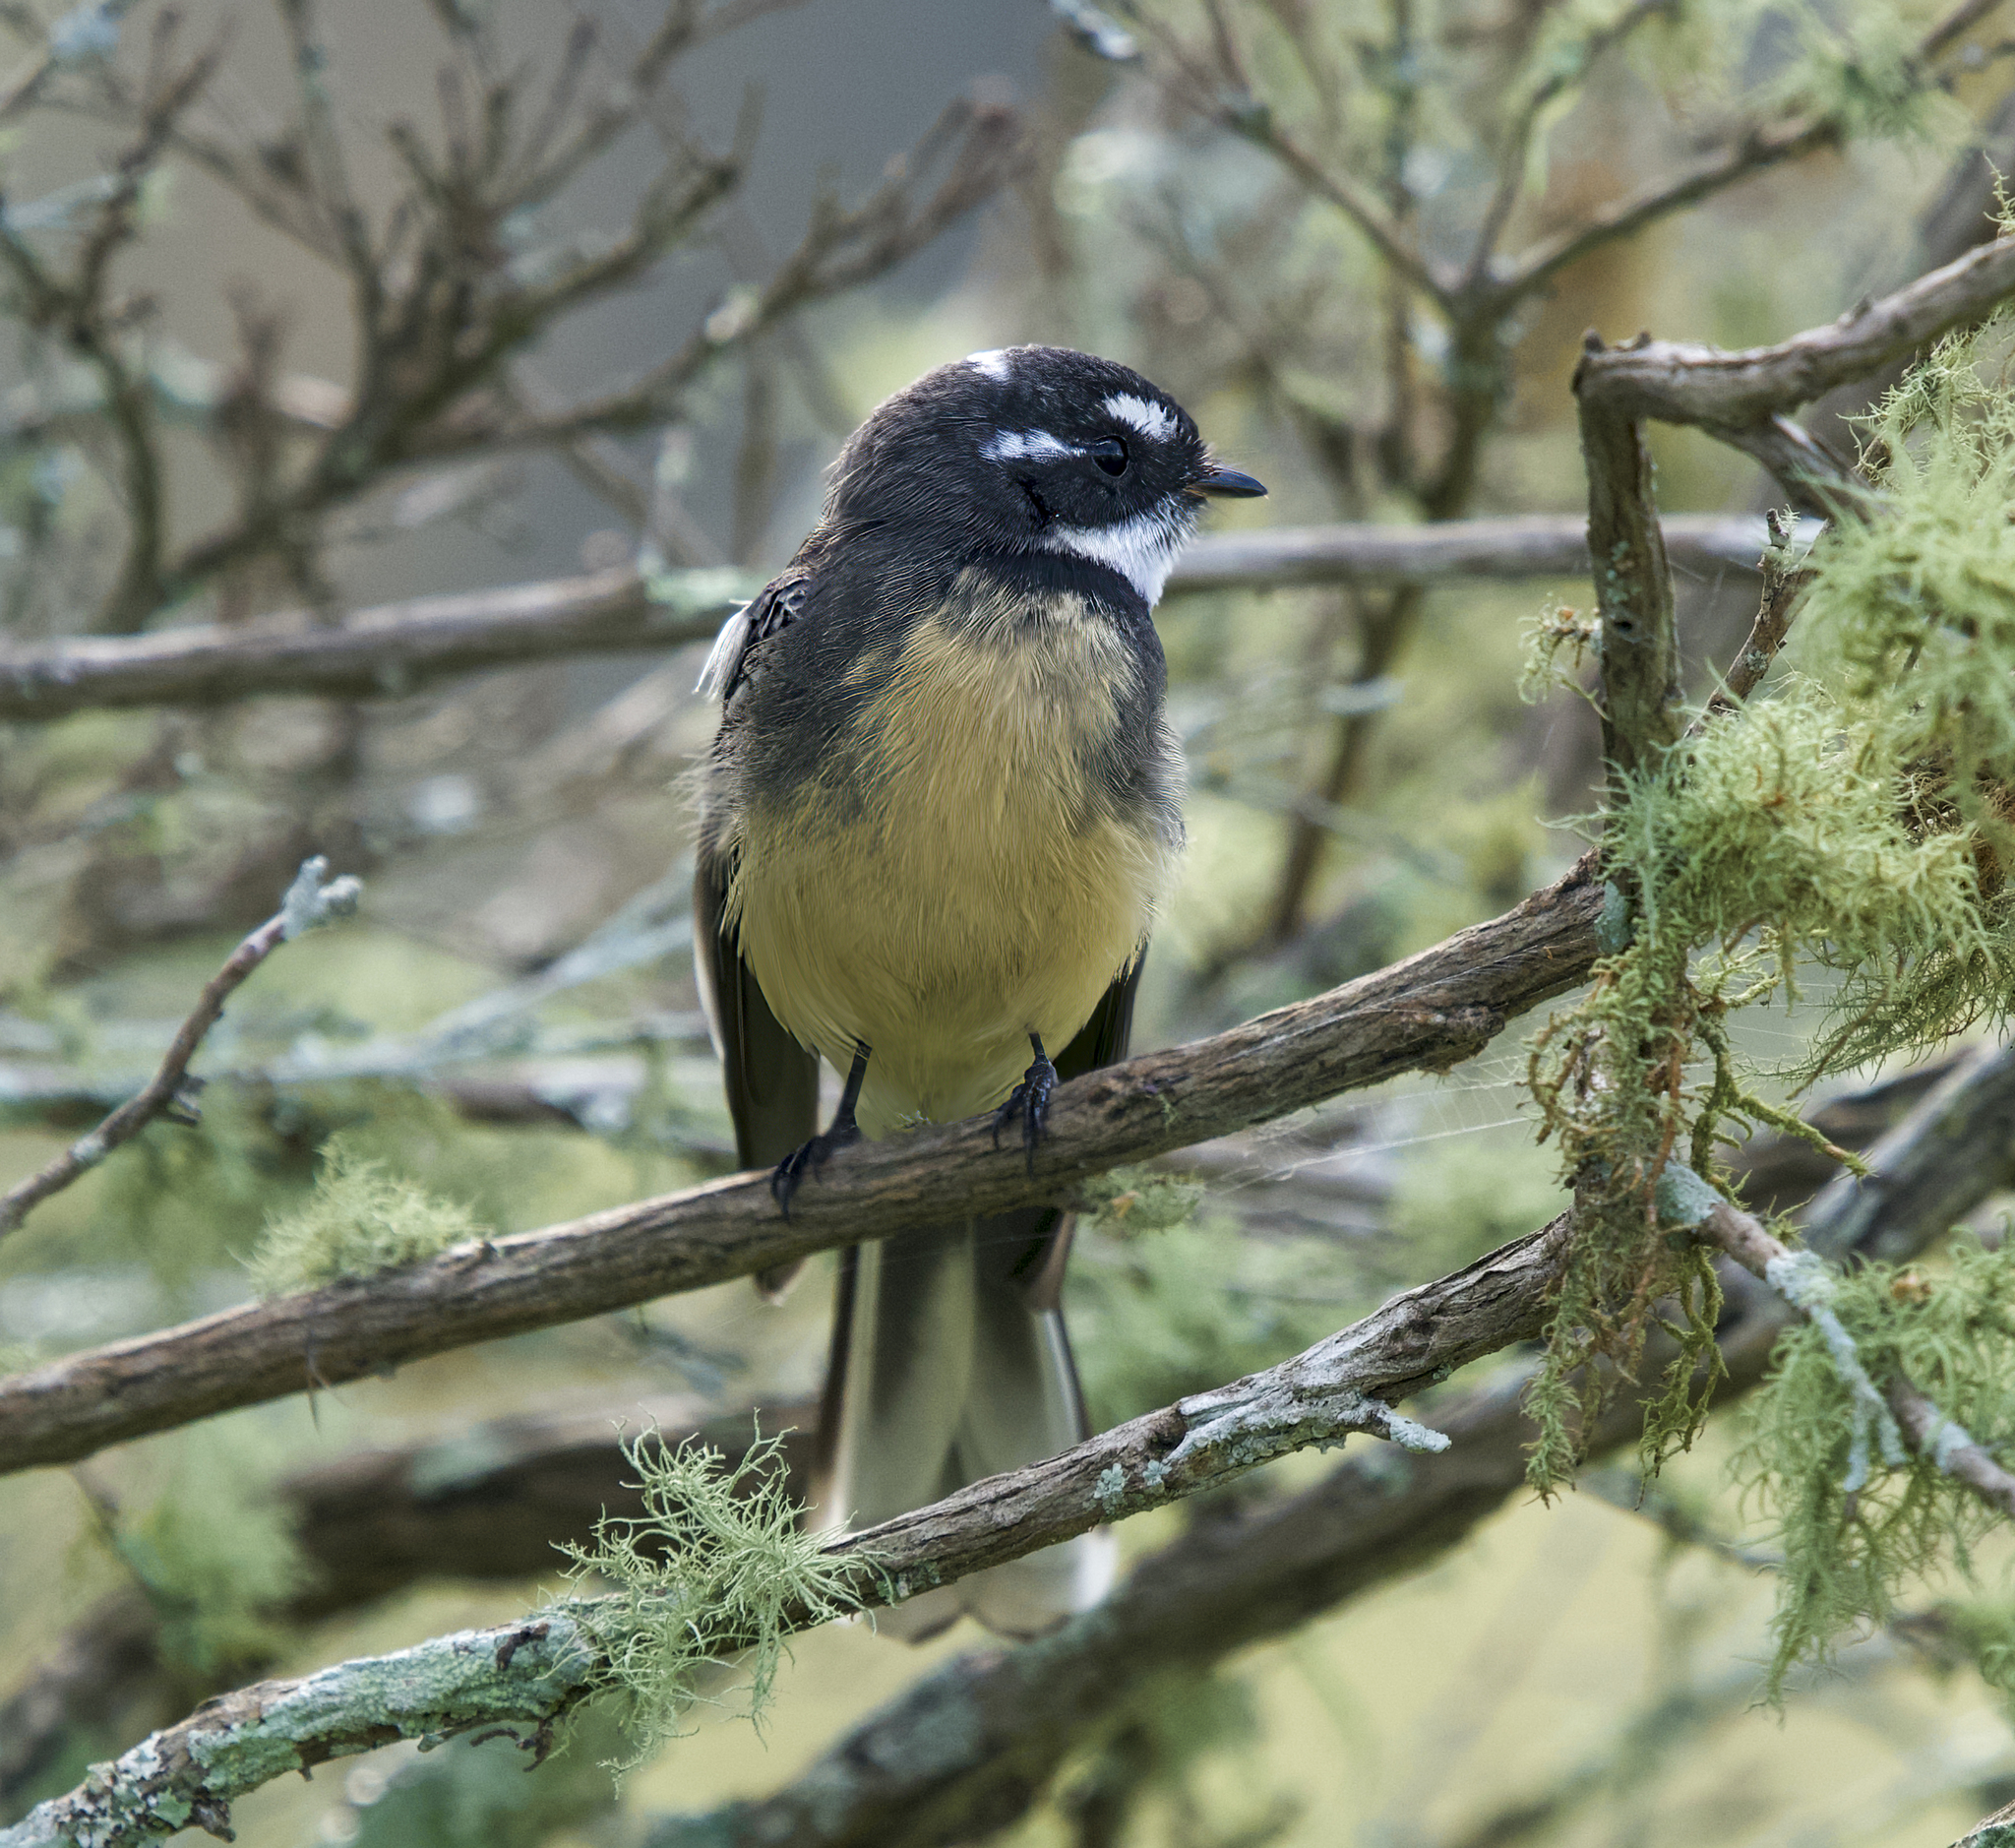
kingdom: Animalia
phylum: Chordata
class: Aves
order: Passeriformes
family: Rhipiduridae
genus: Rhipidura
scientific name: Rhipidura albiscapa
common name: Grey fantail
